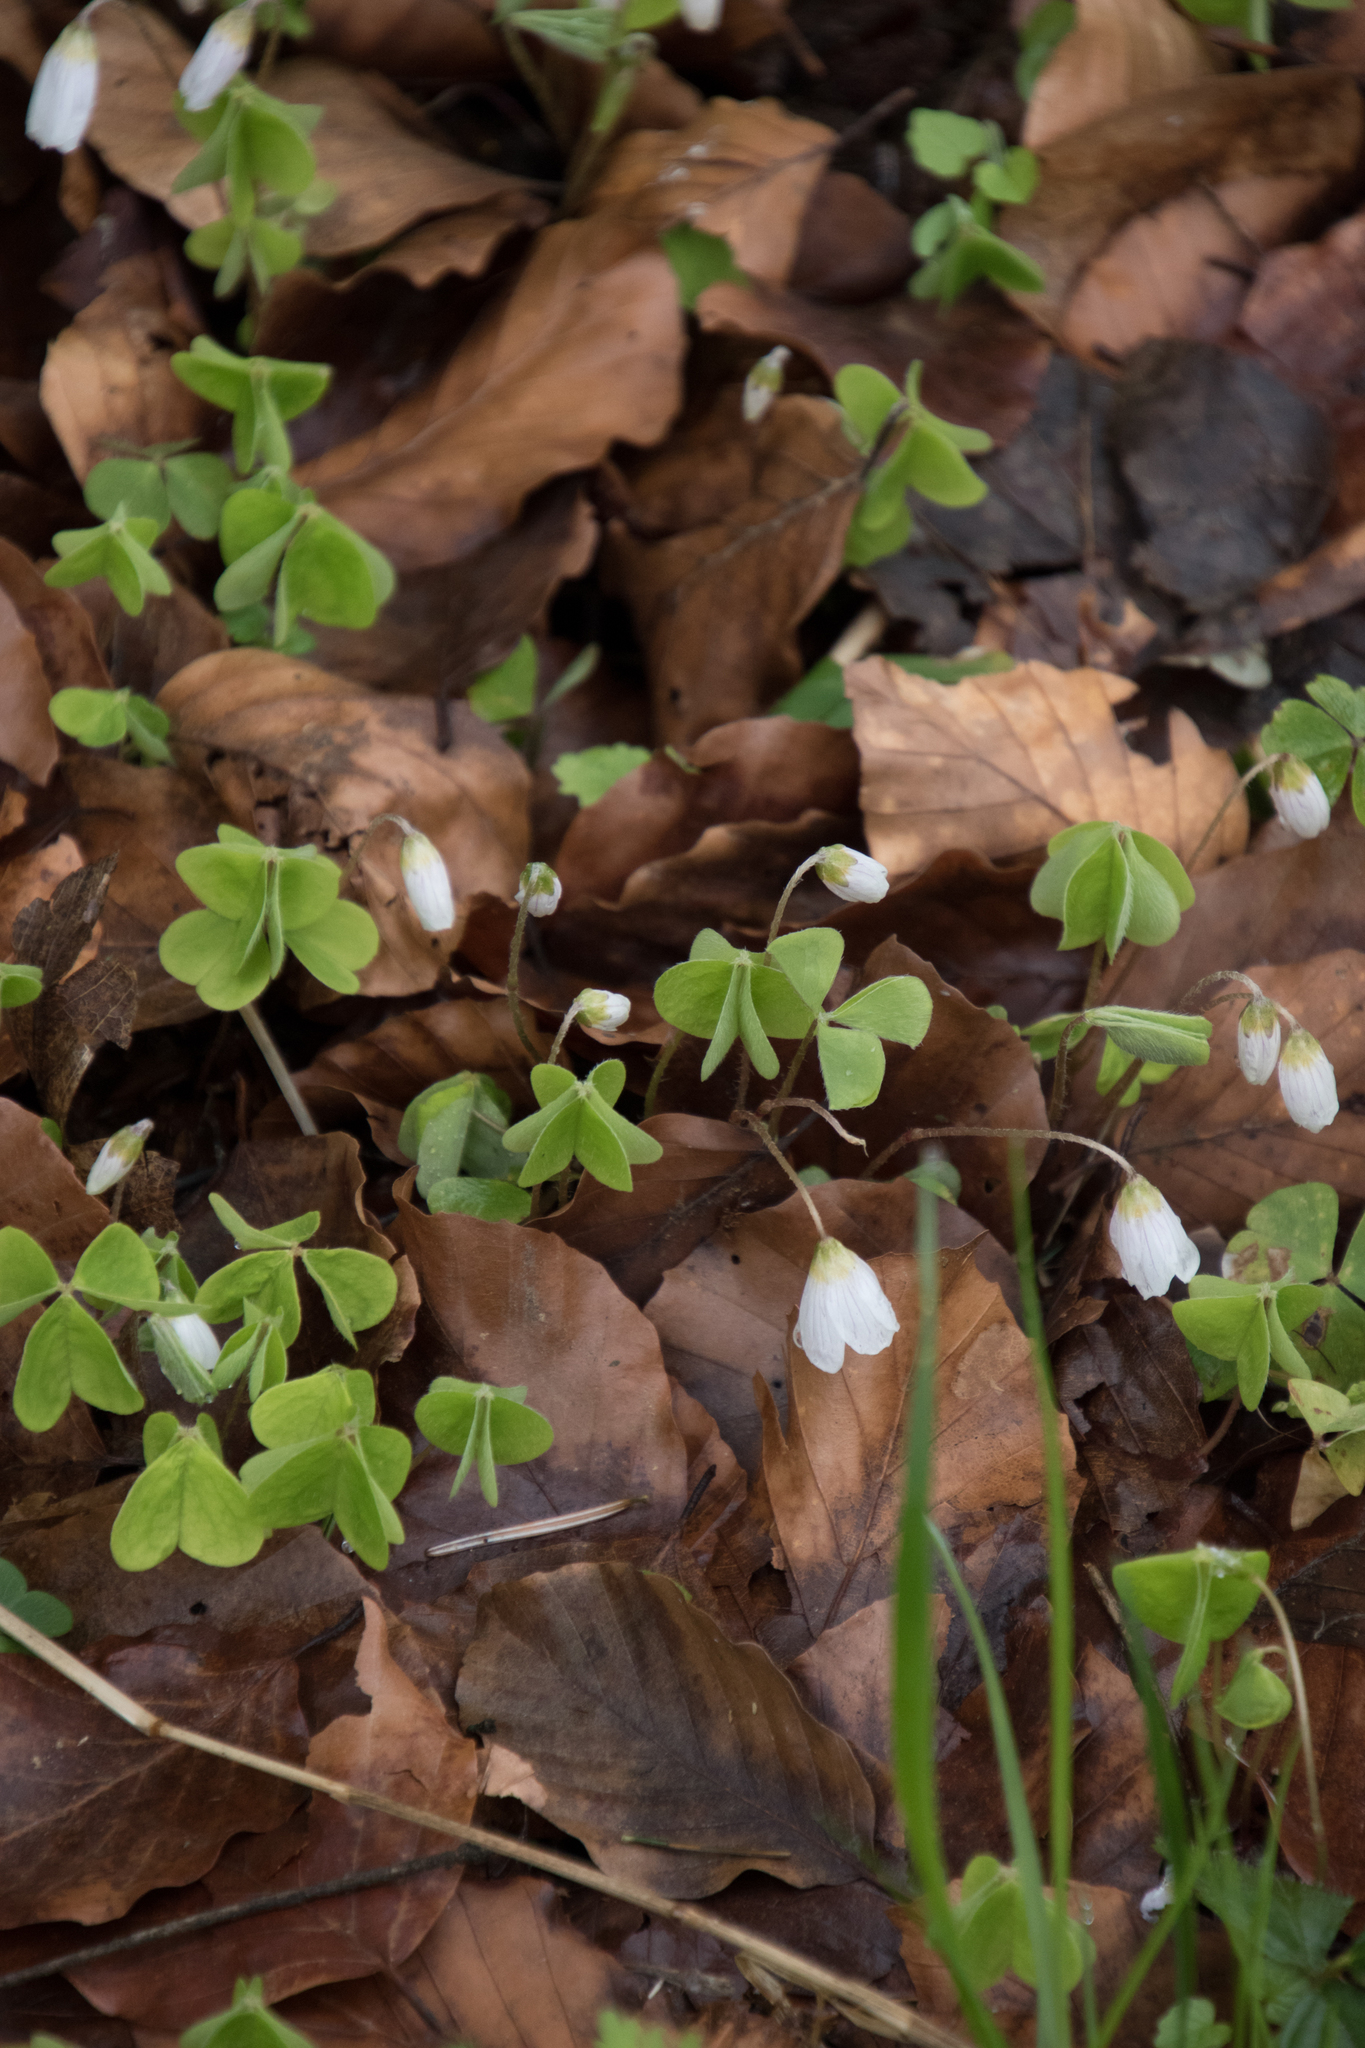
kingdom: Plantae
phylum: Tracheophyta
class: Magnoliopsida
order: Oxalidales
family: Oxalidaceae
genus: Oxalis
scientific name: Oxalis acetosella
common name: Wood-sorrel
